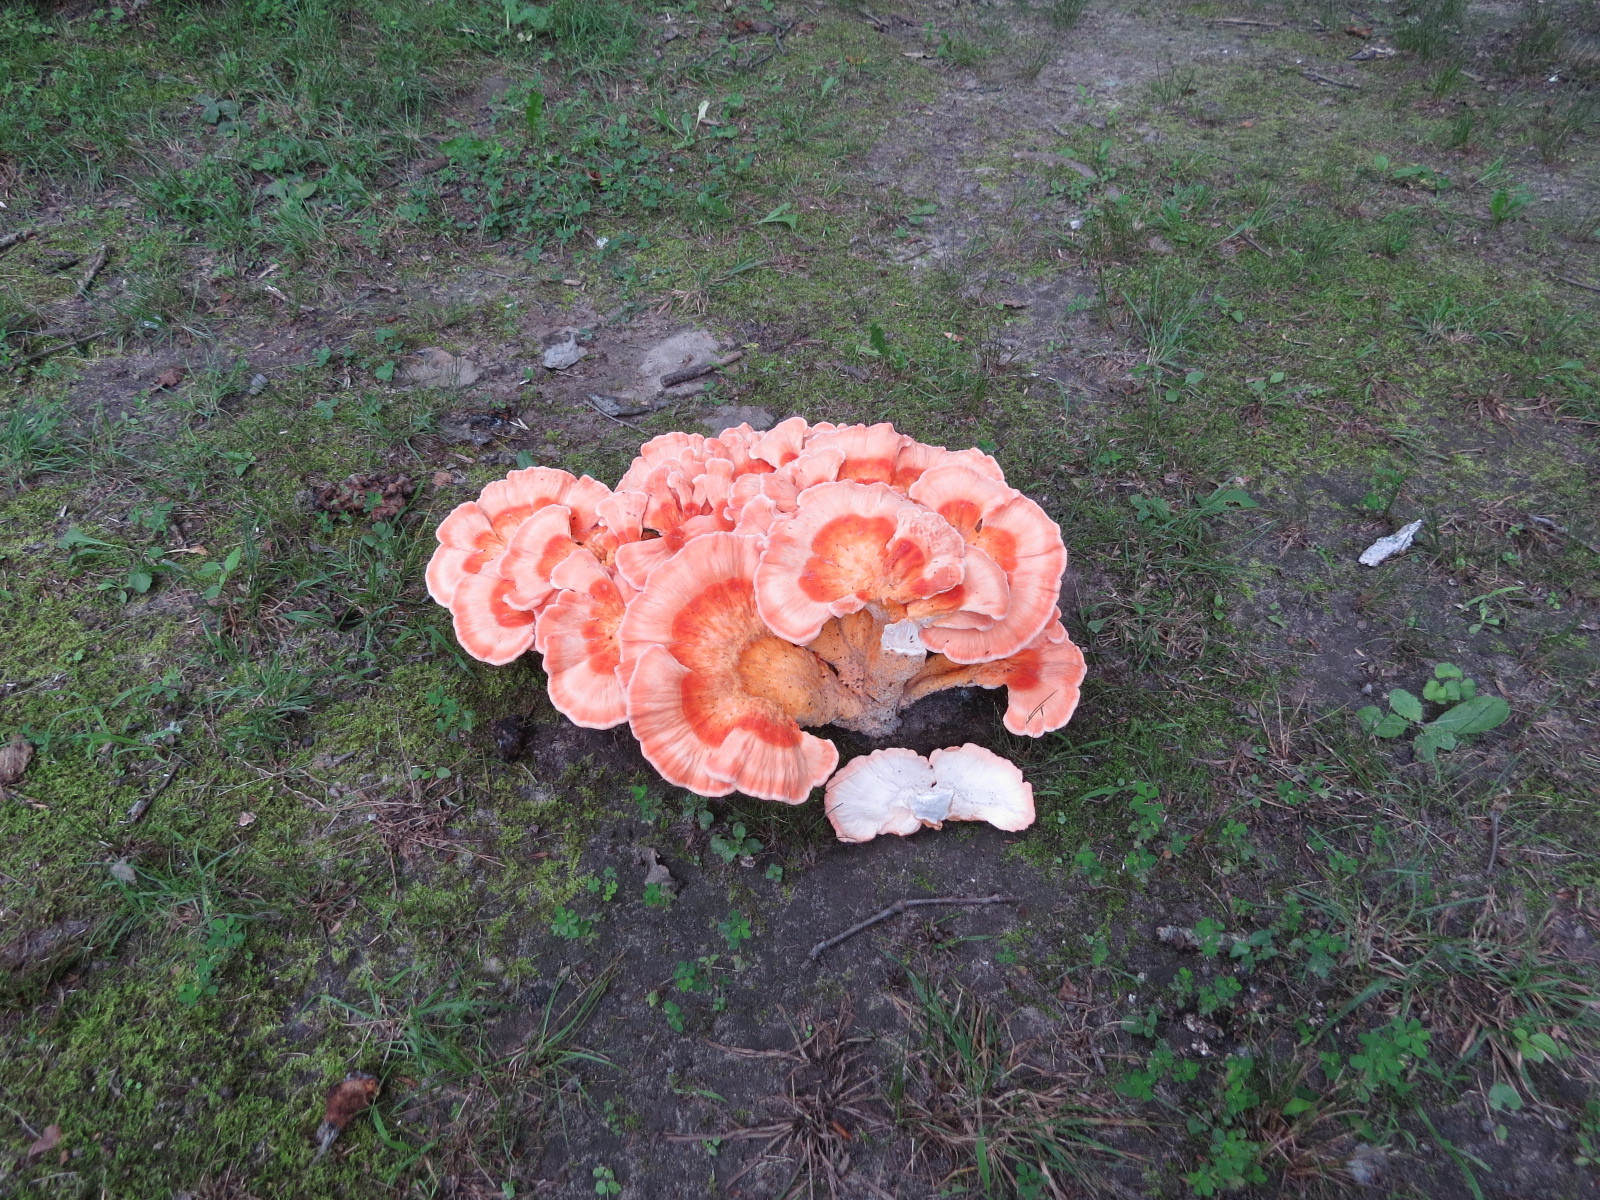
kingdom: Fungi
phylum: Basidiomycota
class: Agaricomycetes
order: Polyporales
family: Laetiporaceae
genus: Laetiporus
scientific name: Laetiporus sulphureus
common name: Chicken of the woods
